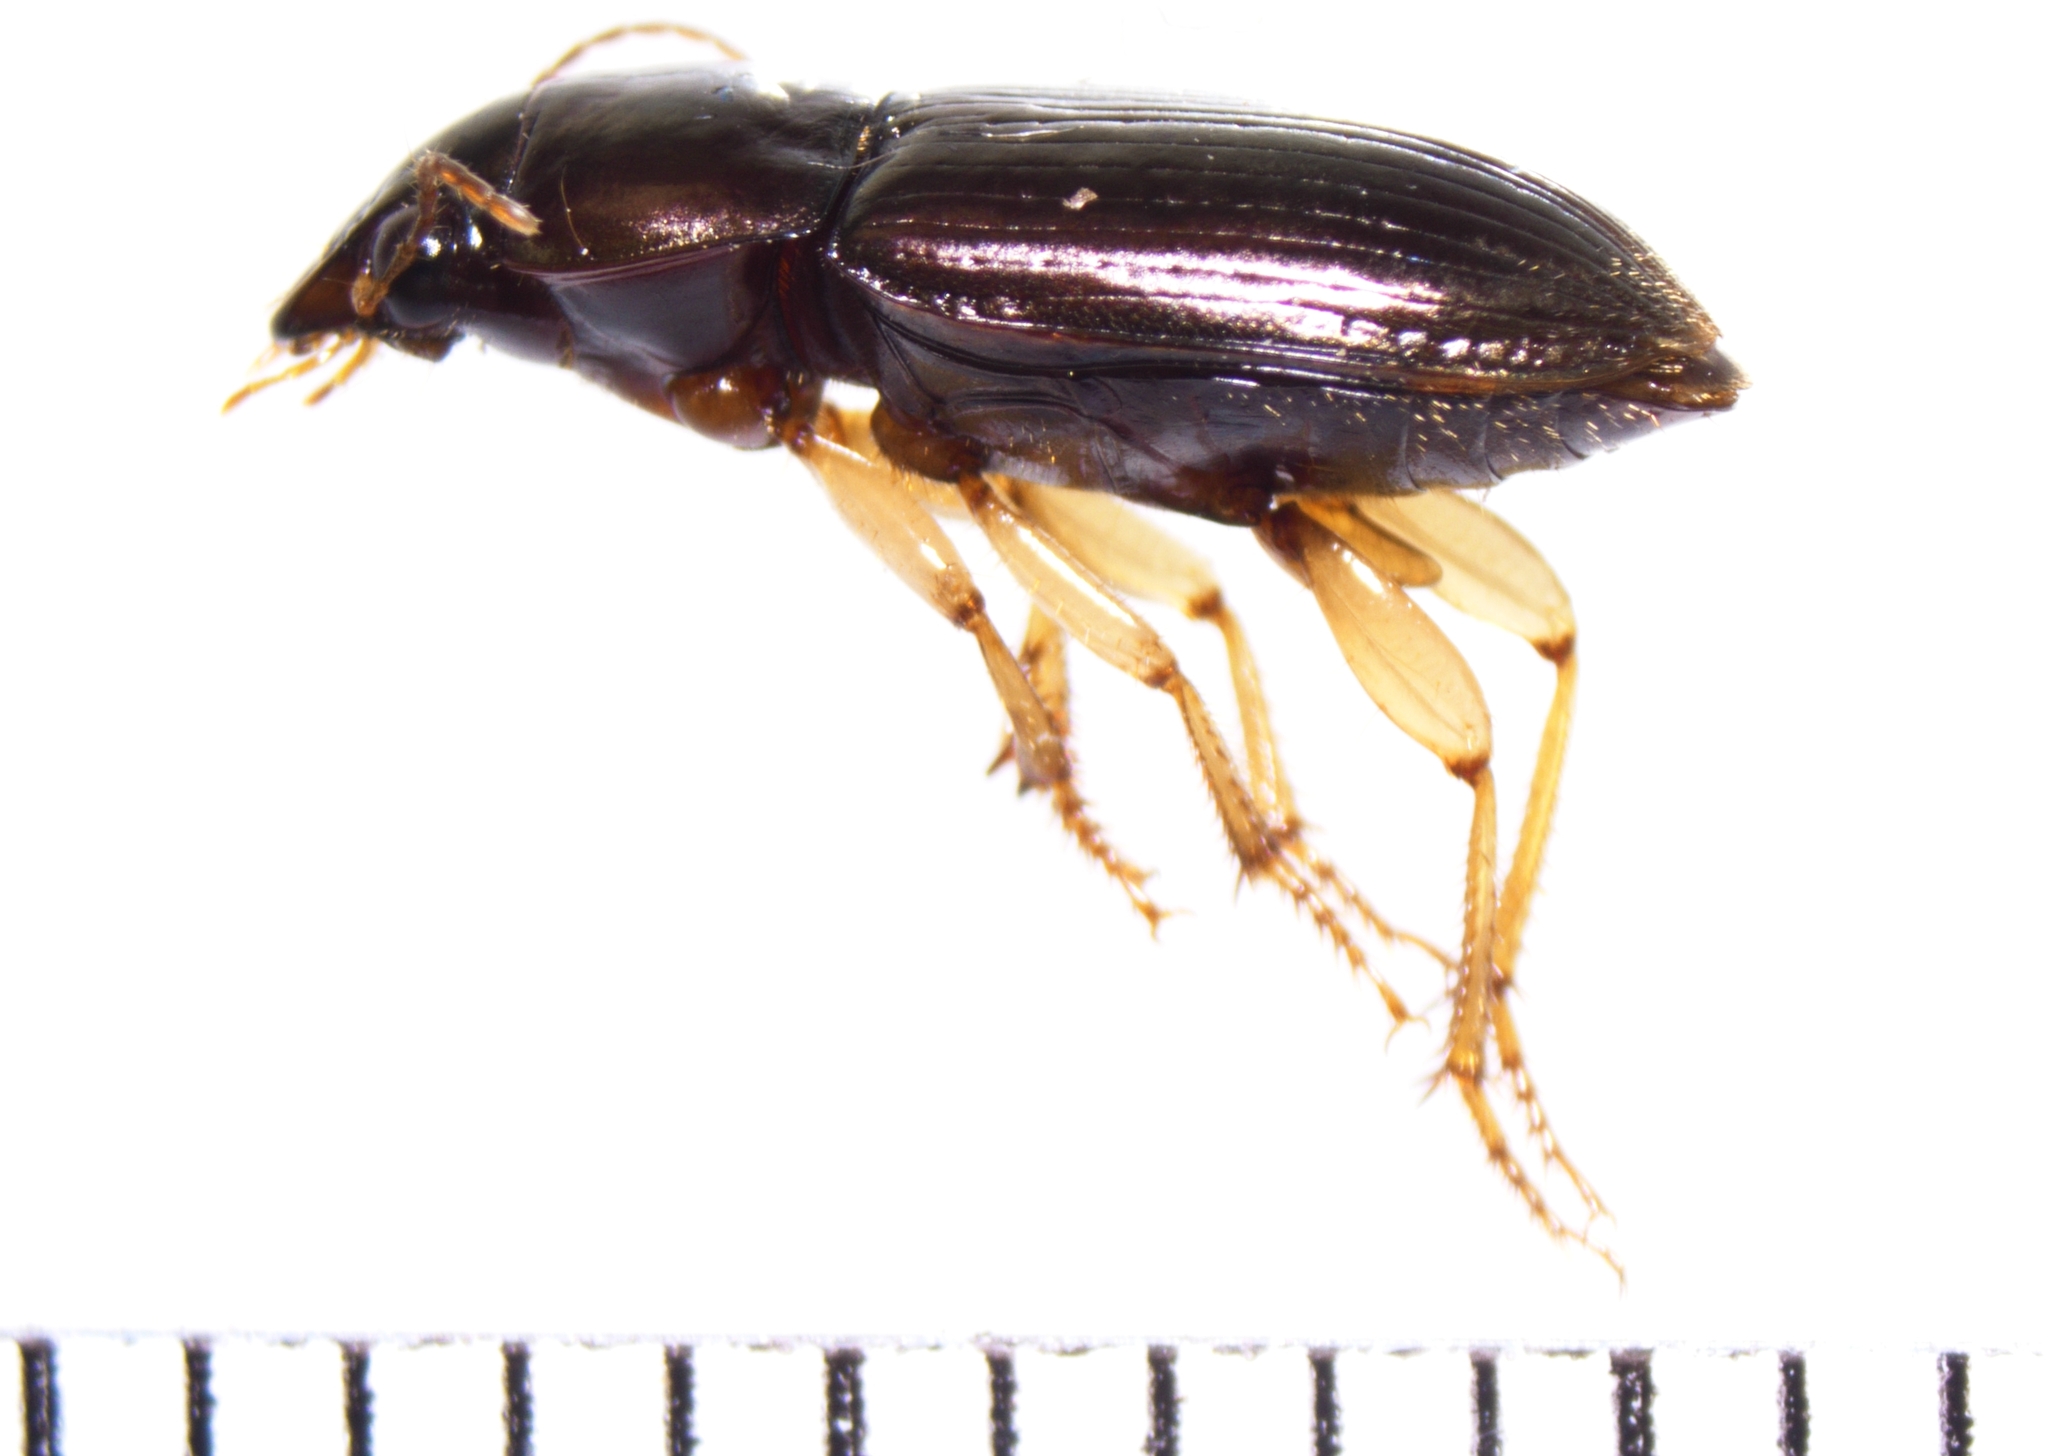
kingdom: Animalia
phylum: Arthropoda
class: Insecta
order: Coleoptera
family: Carabidae
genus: Selenophorus
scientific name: Selenophorus pyritosus
